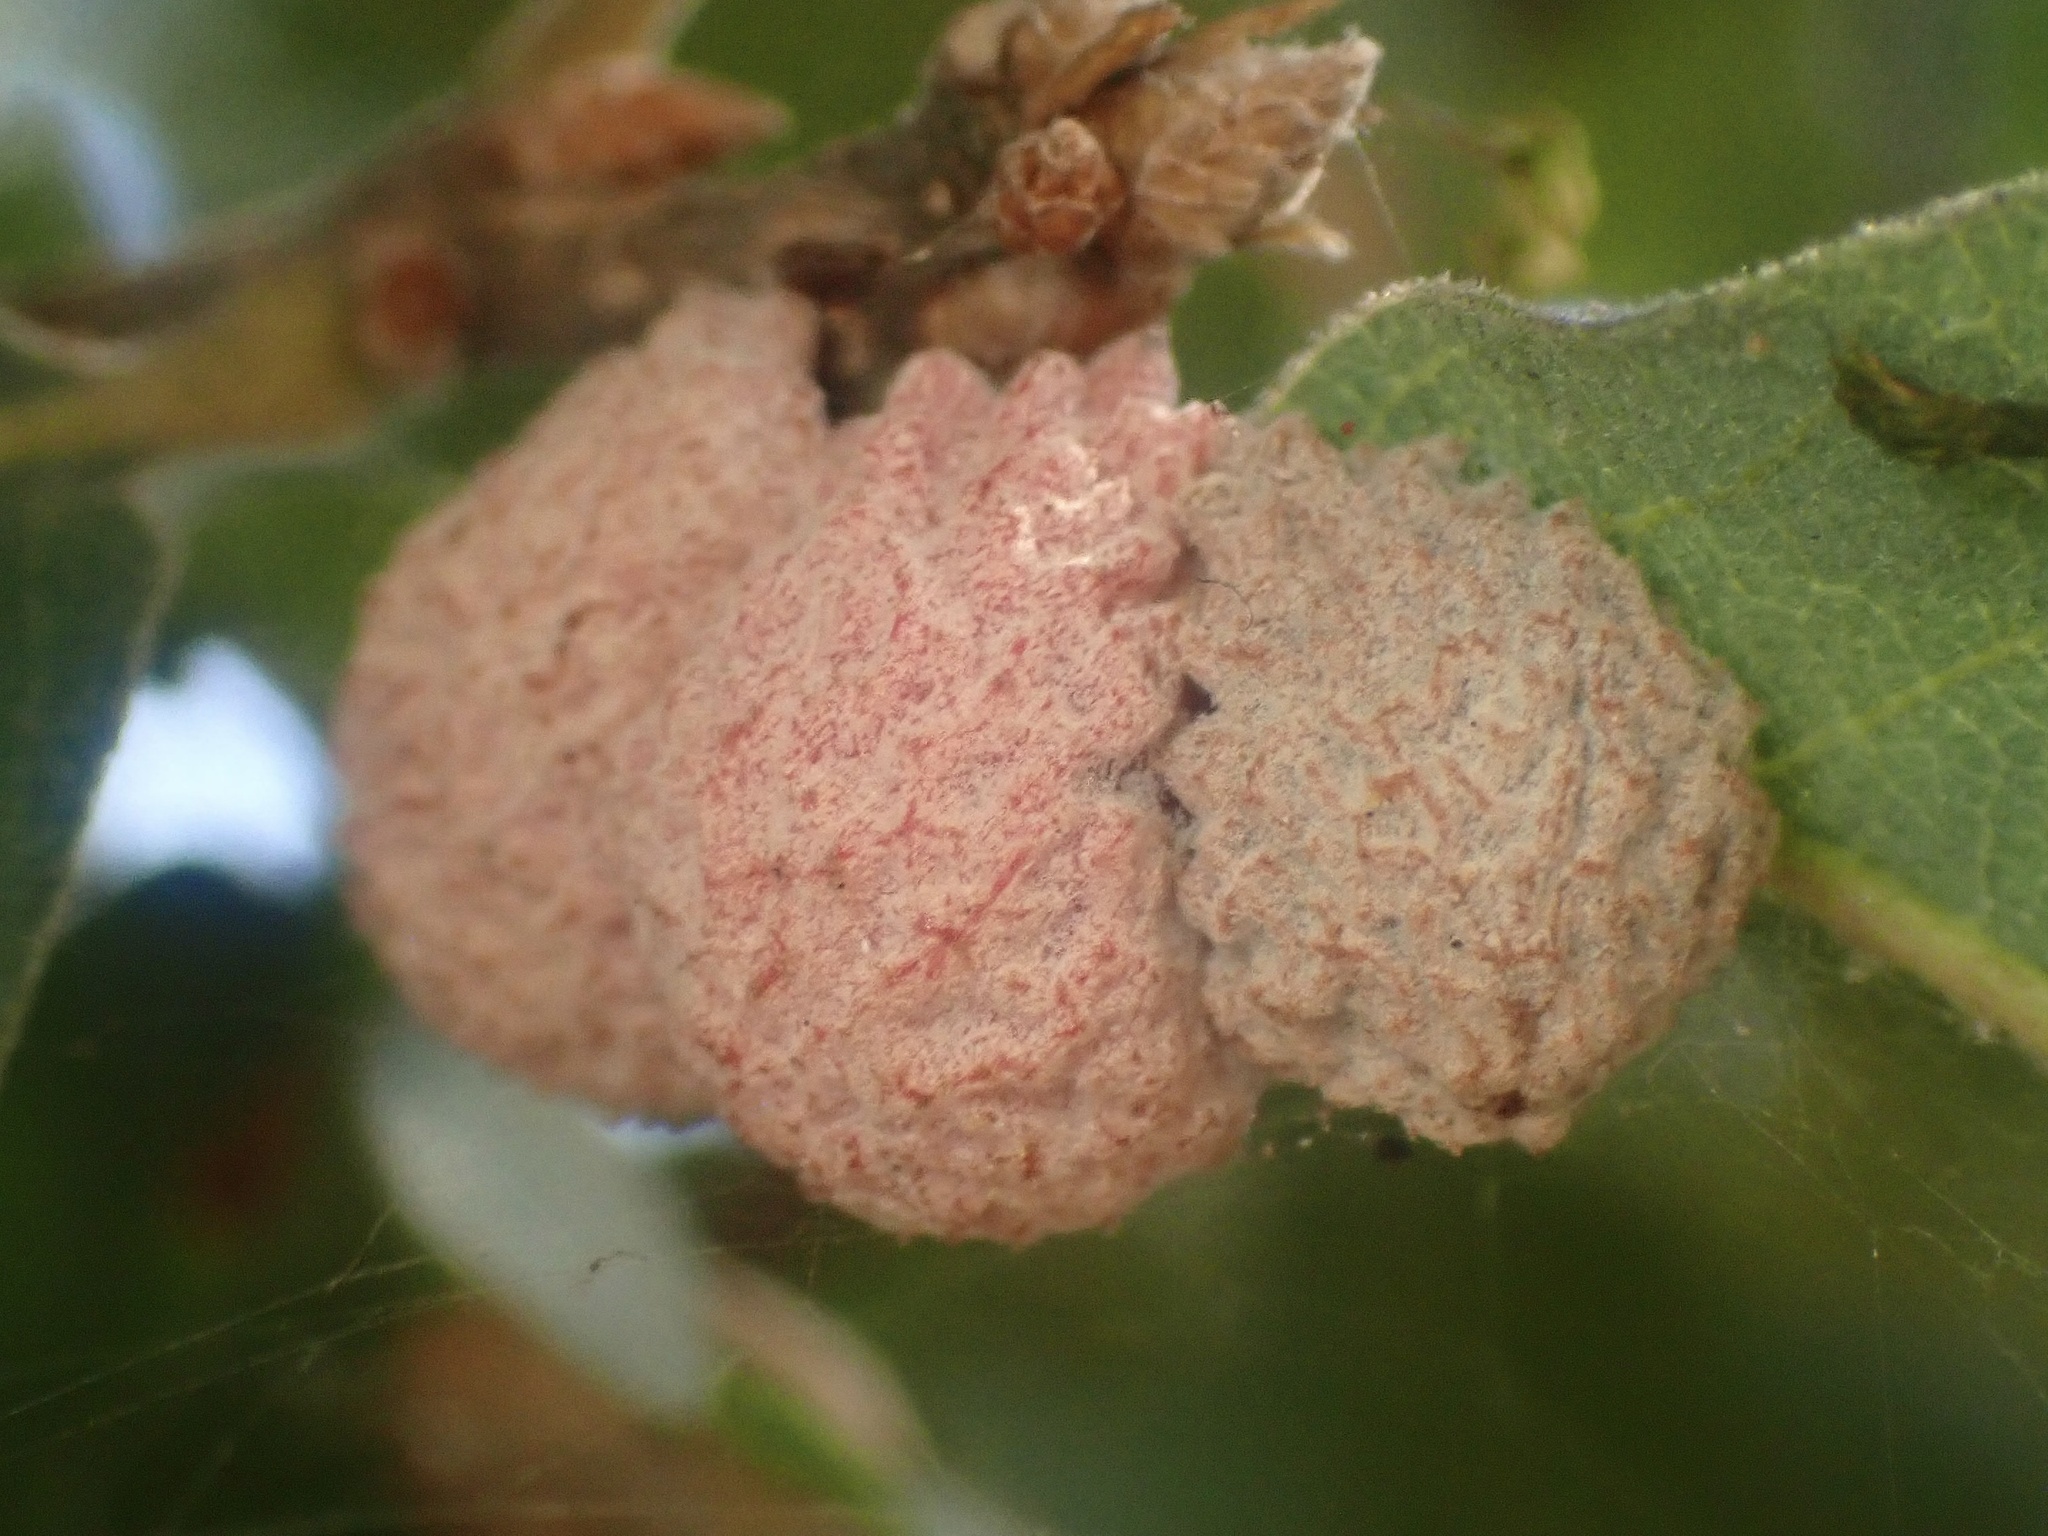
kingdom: Animalia
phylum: Arthropoda
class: Insecta
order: Hymenoptera
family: Cynipidae
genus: Cynips
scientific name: Cynips conspicua
